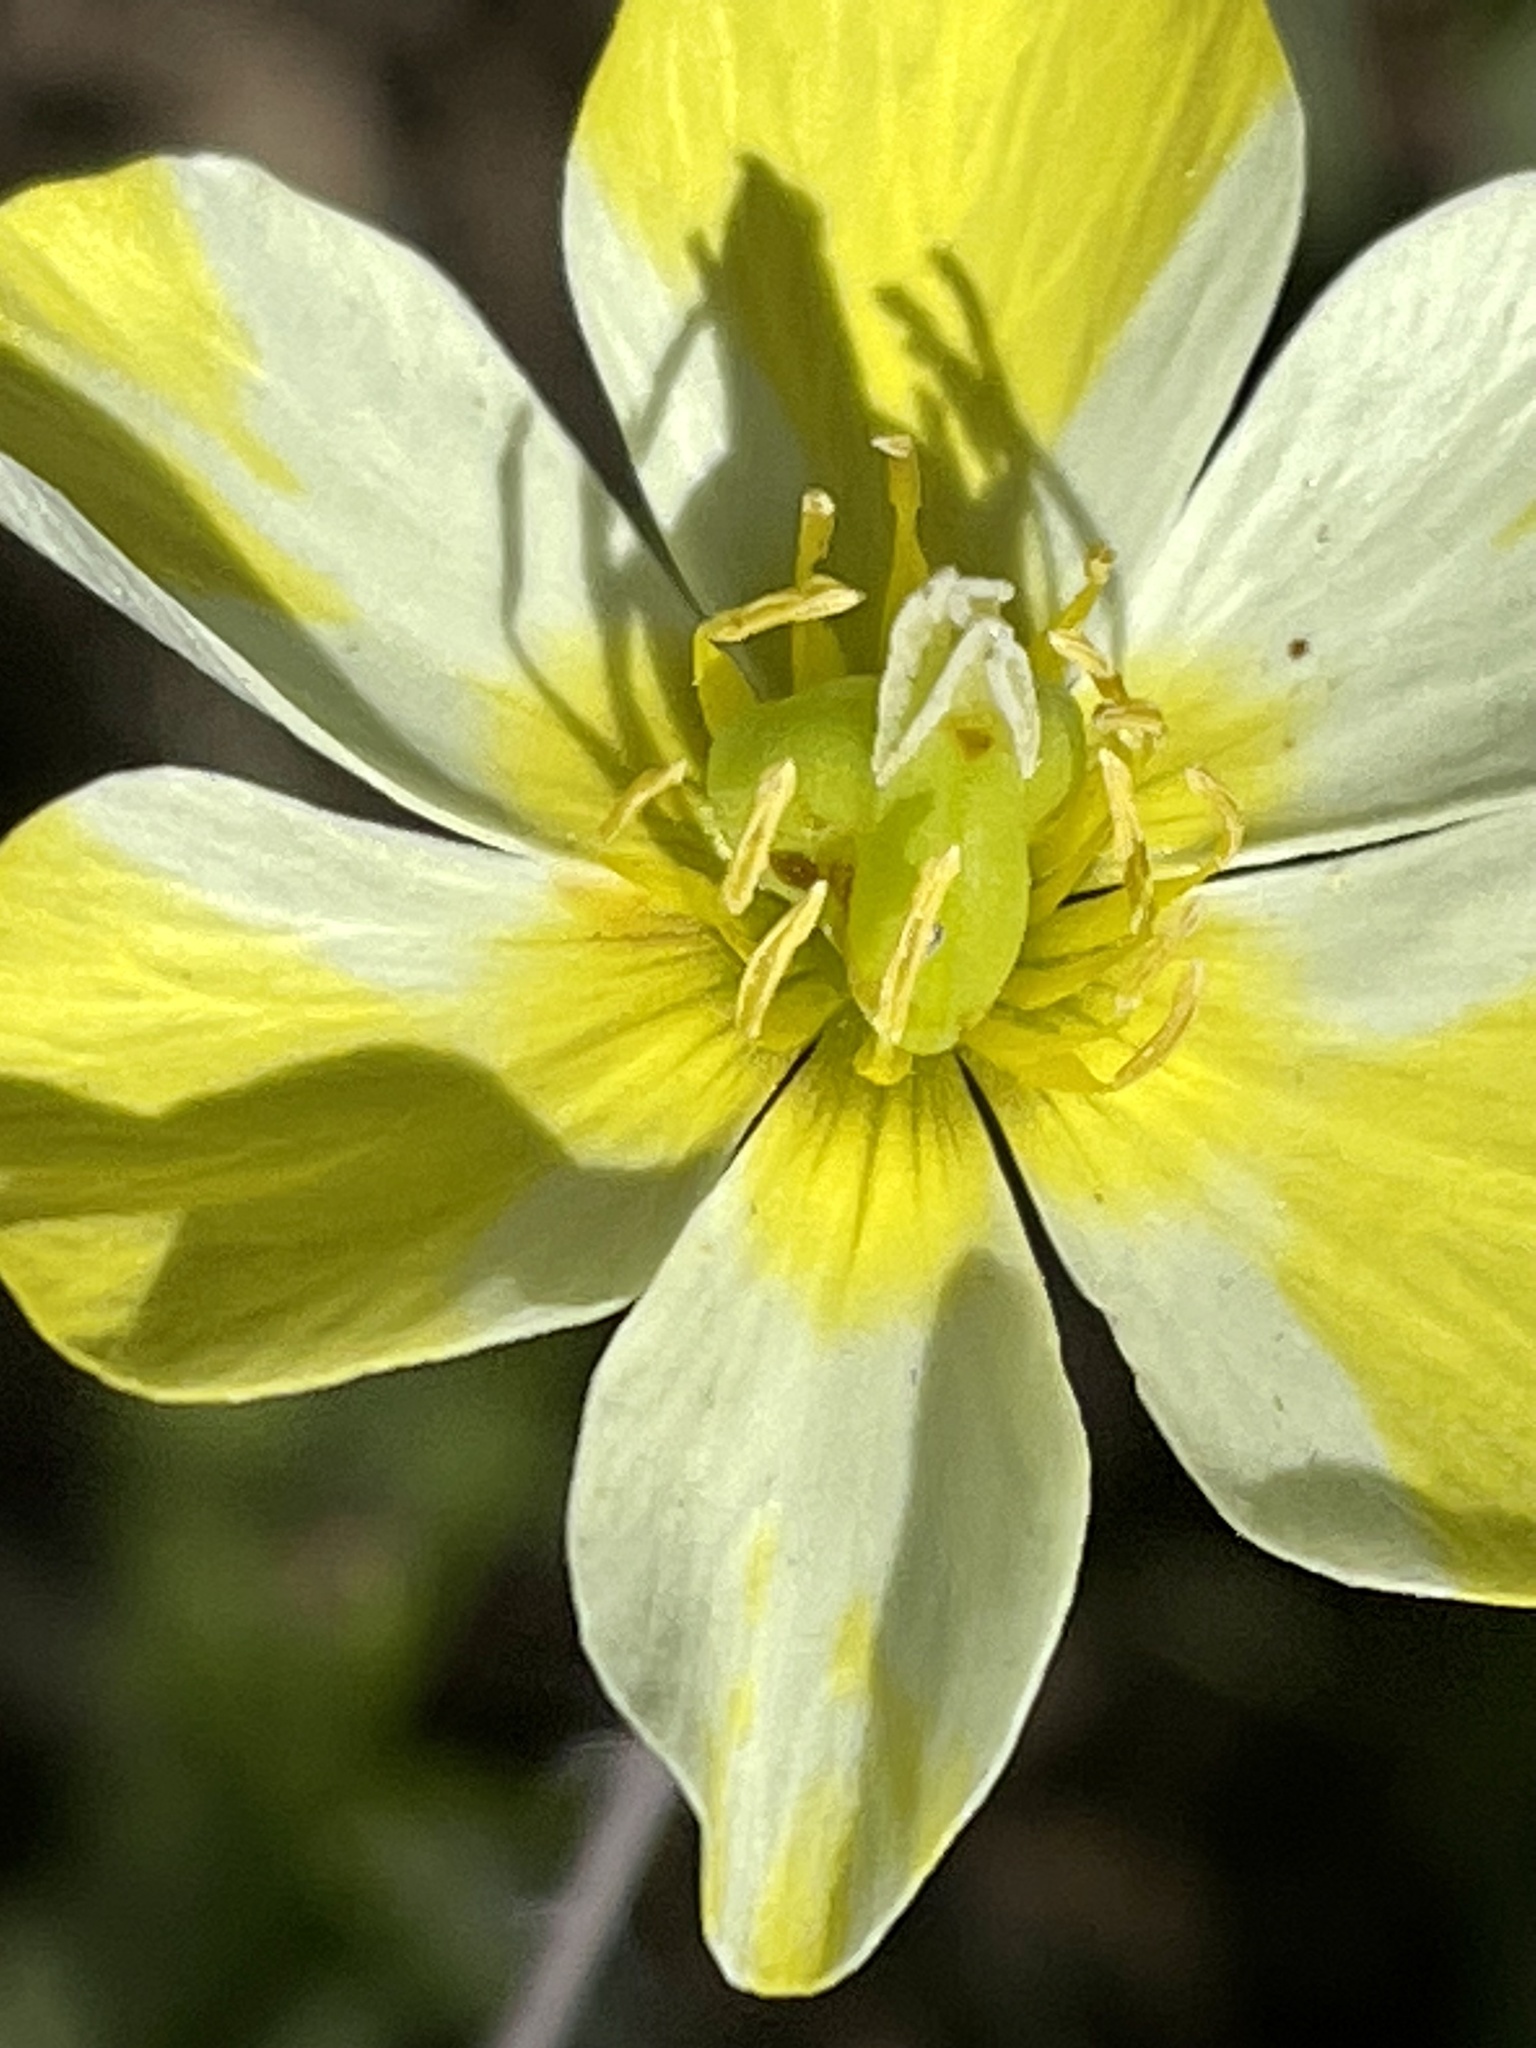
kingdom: Plantae
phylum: Tracheophyta
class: Magnoliopsida
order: Ranunculales
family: Papaveraceae
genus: Platystigma
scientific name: Platystigma lineare
